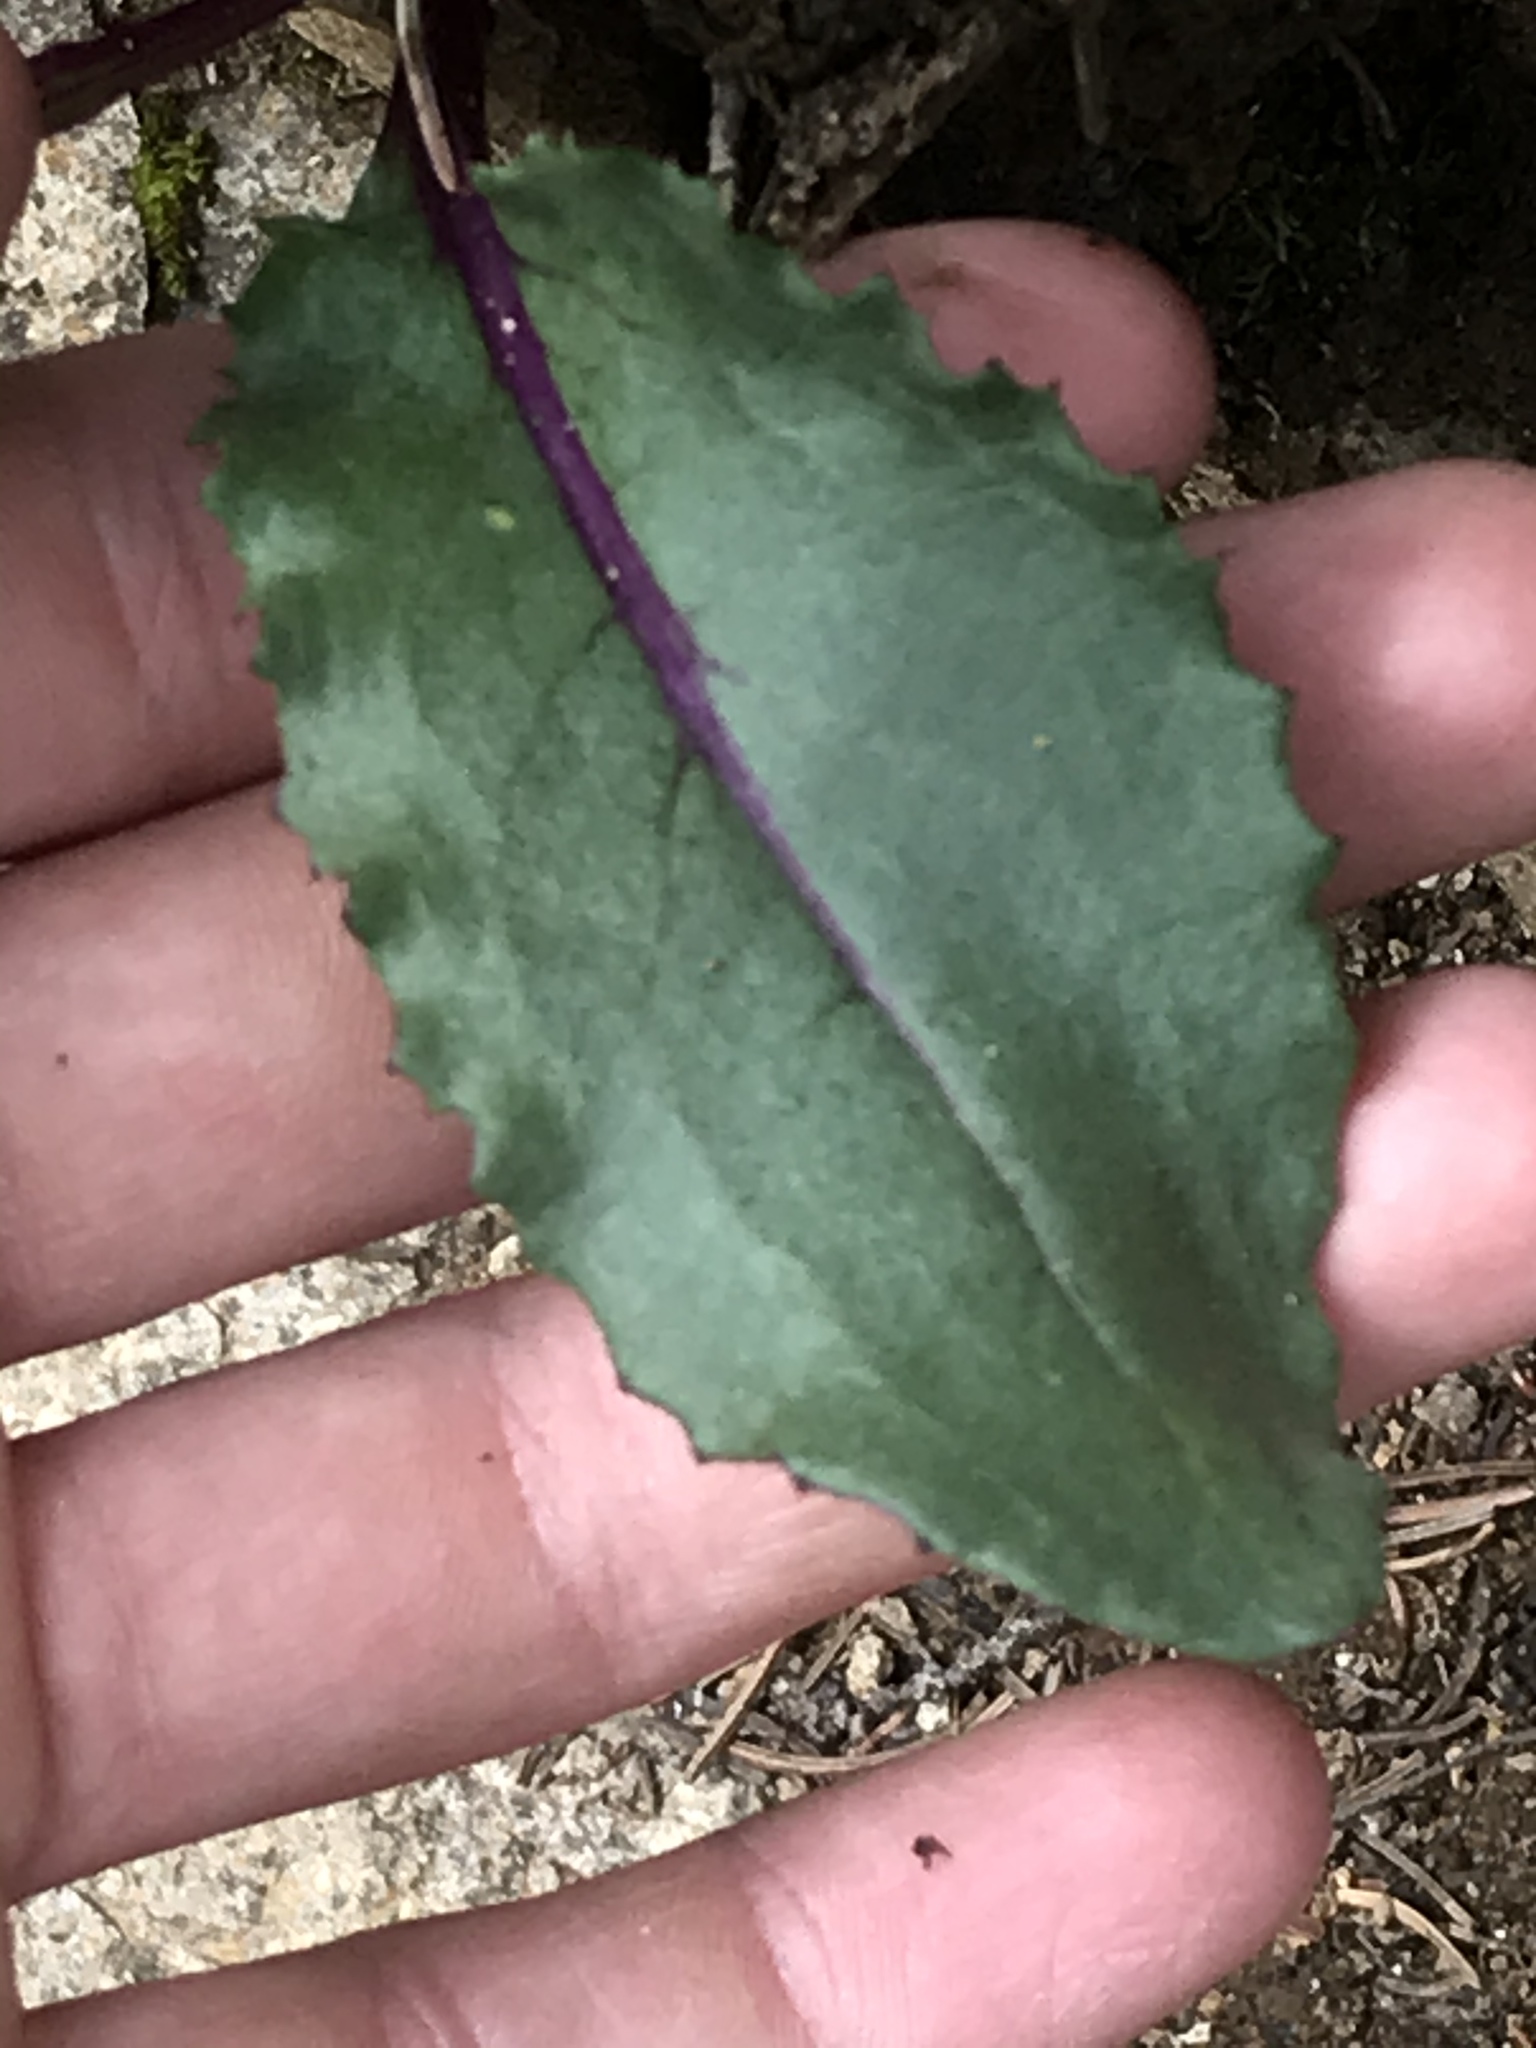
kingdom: Plantae
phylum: Tracheophyta
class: Magnoliopsida
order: Asterales
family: Asteraceae
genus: Senecio
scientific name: Senecio amplectens
